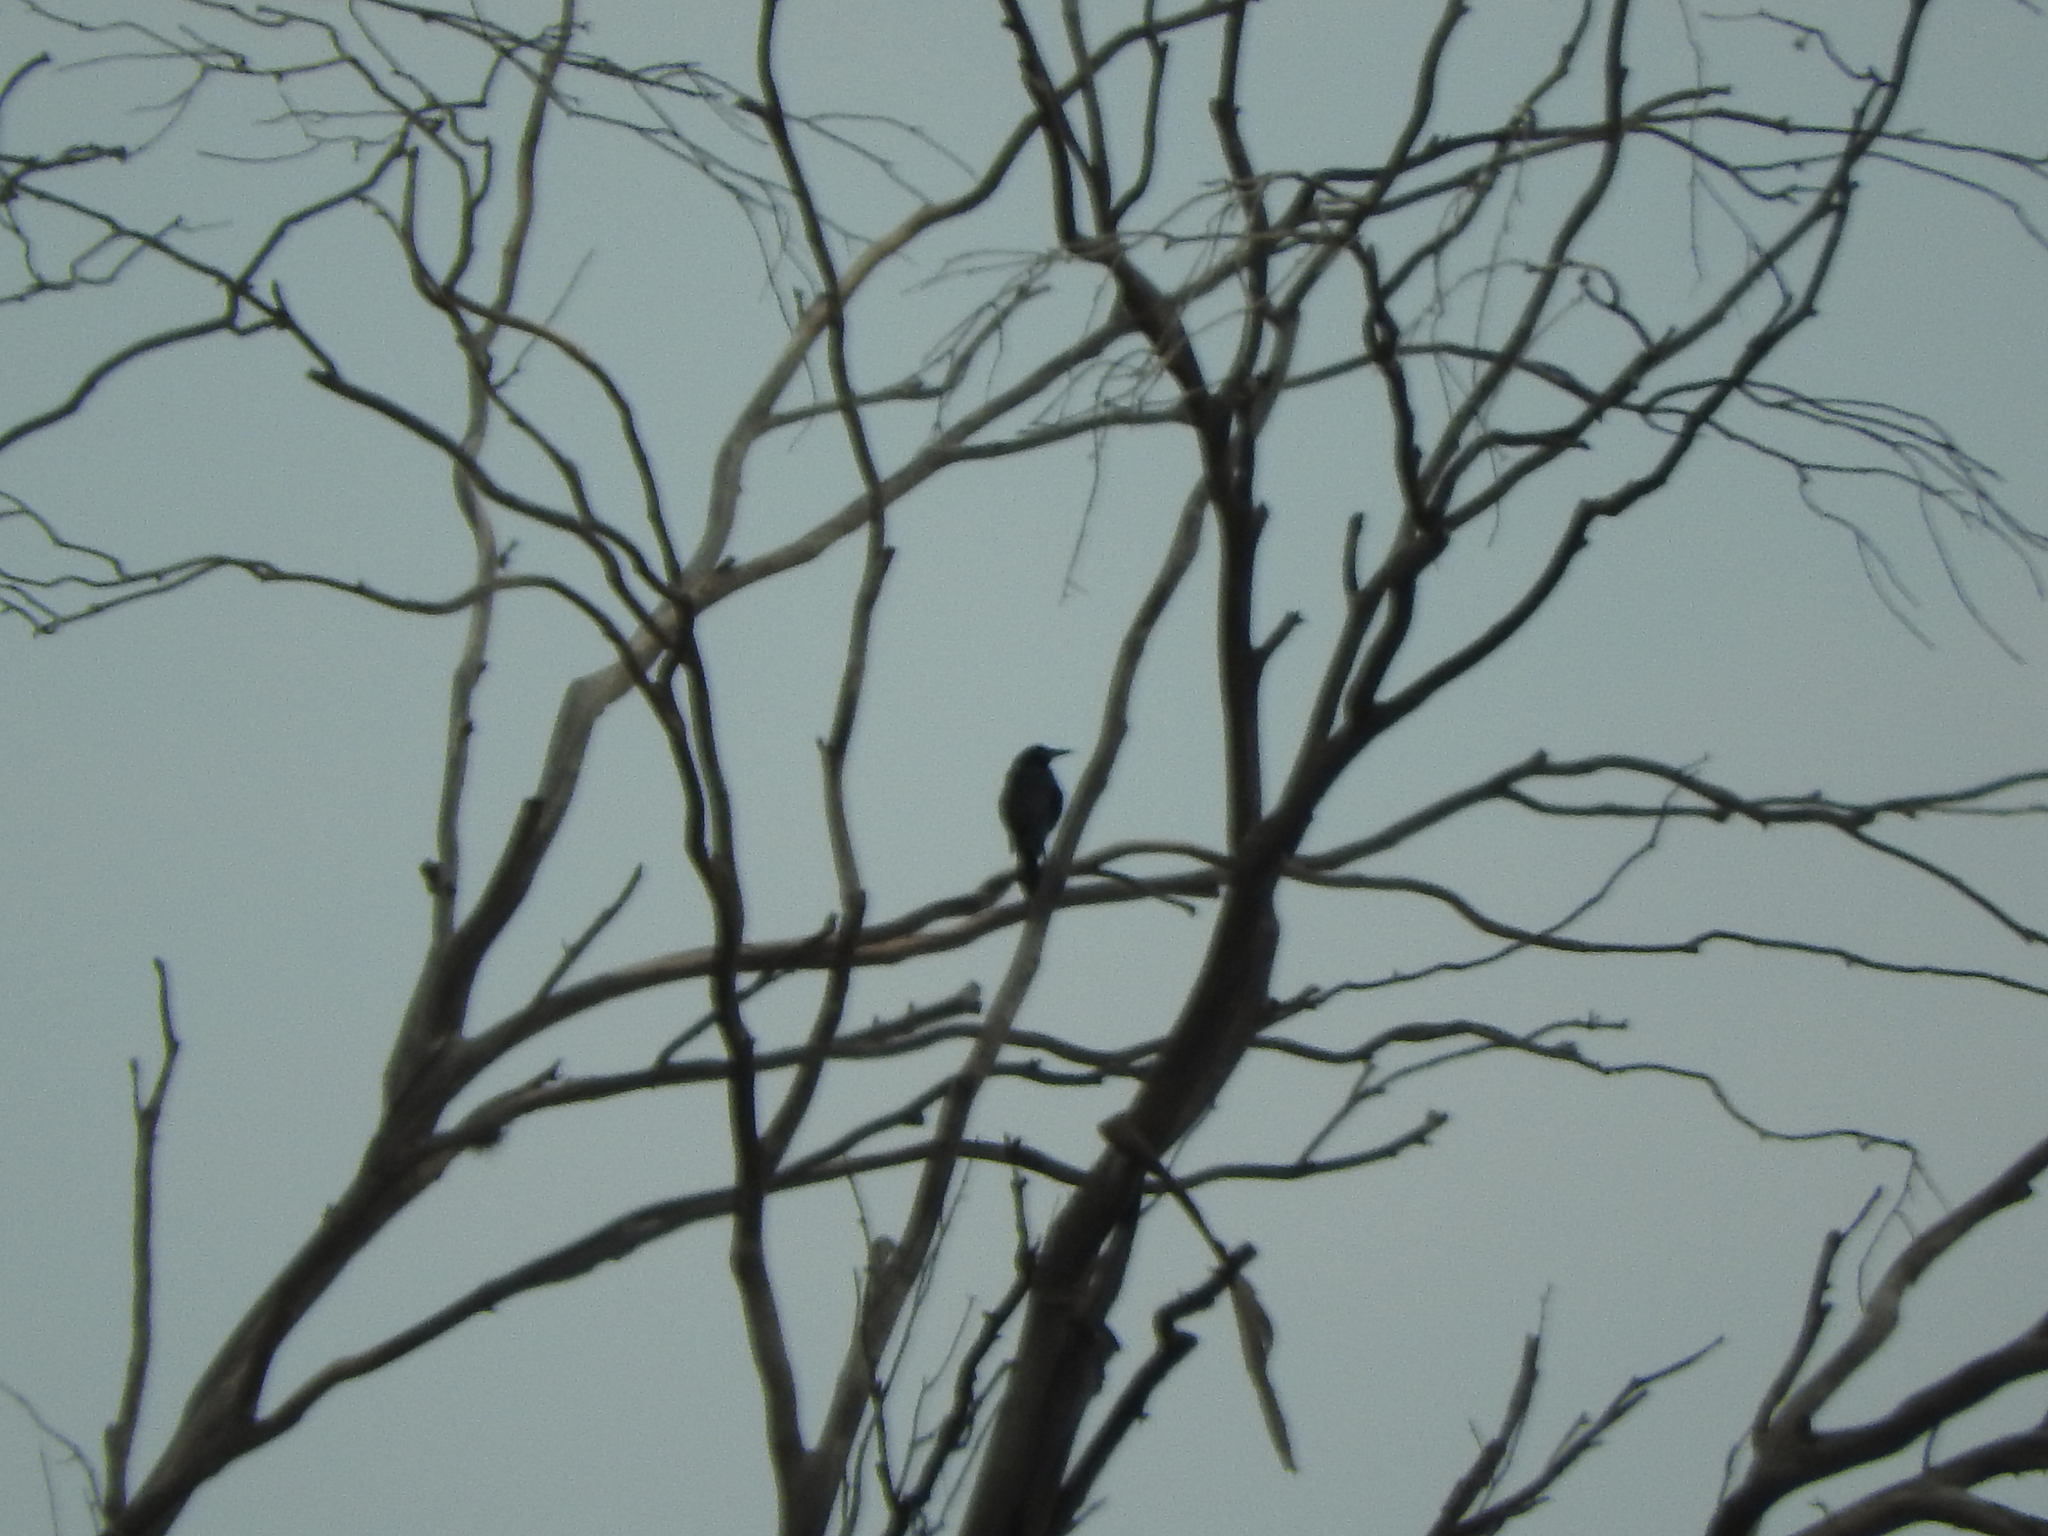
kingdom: Animalia
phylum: Chordata
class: Aves
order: Passeriformes
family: Icteridae
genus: Quiscalus
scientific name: Quiscalus mexicanus
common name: Great-tailed grackle
